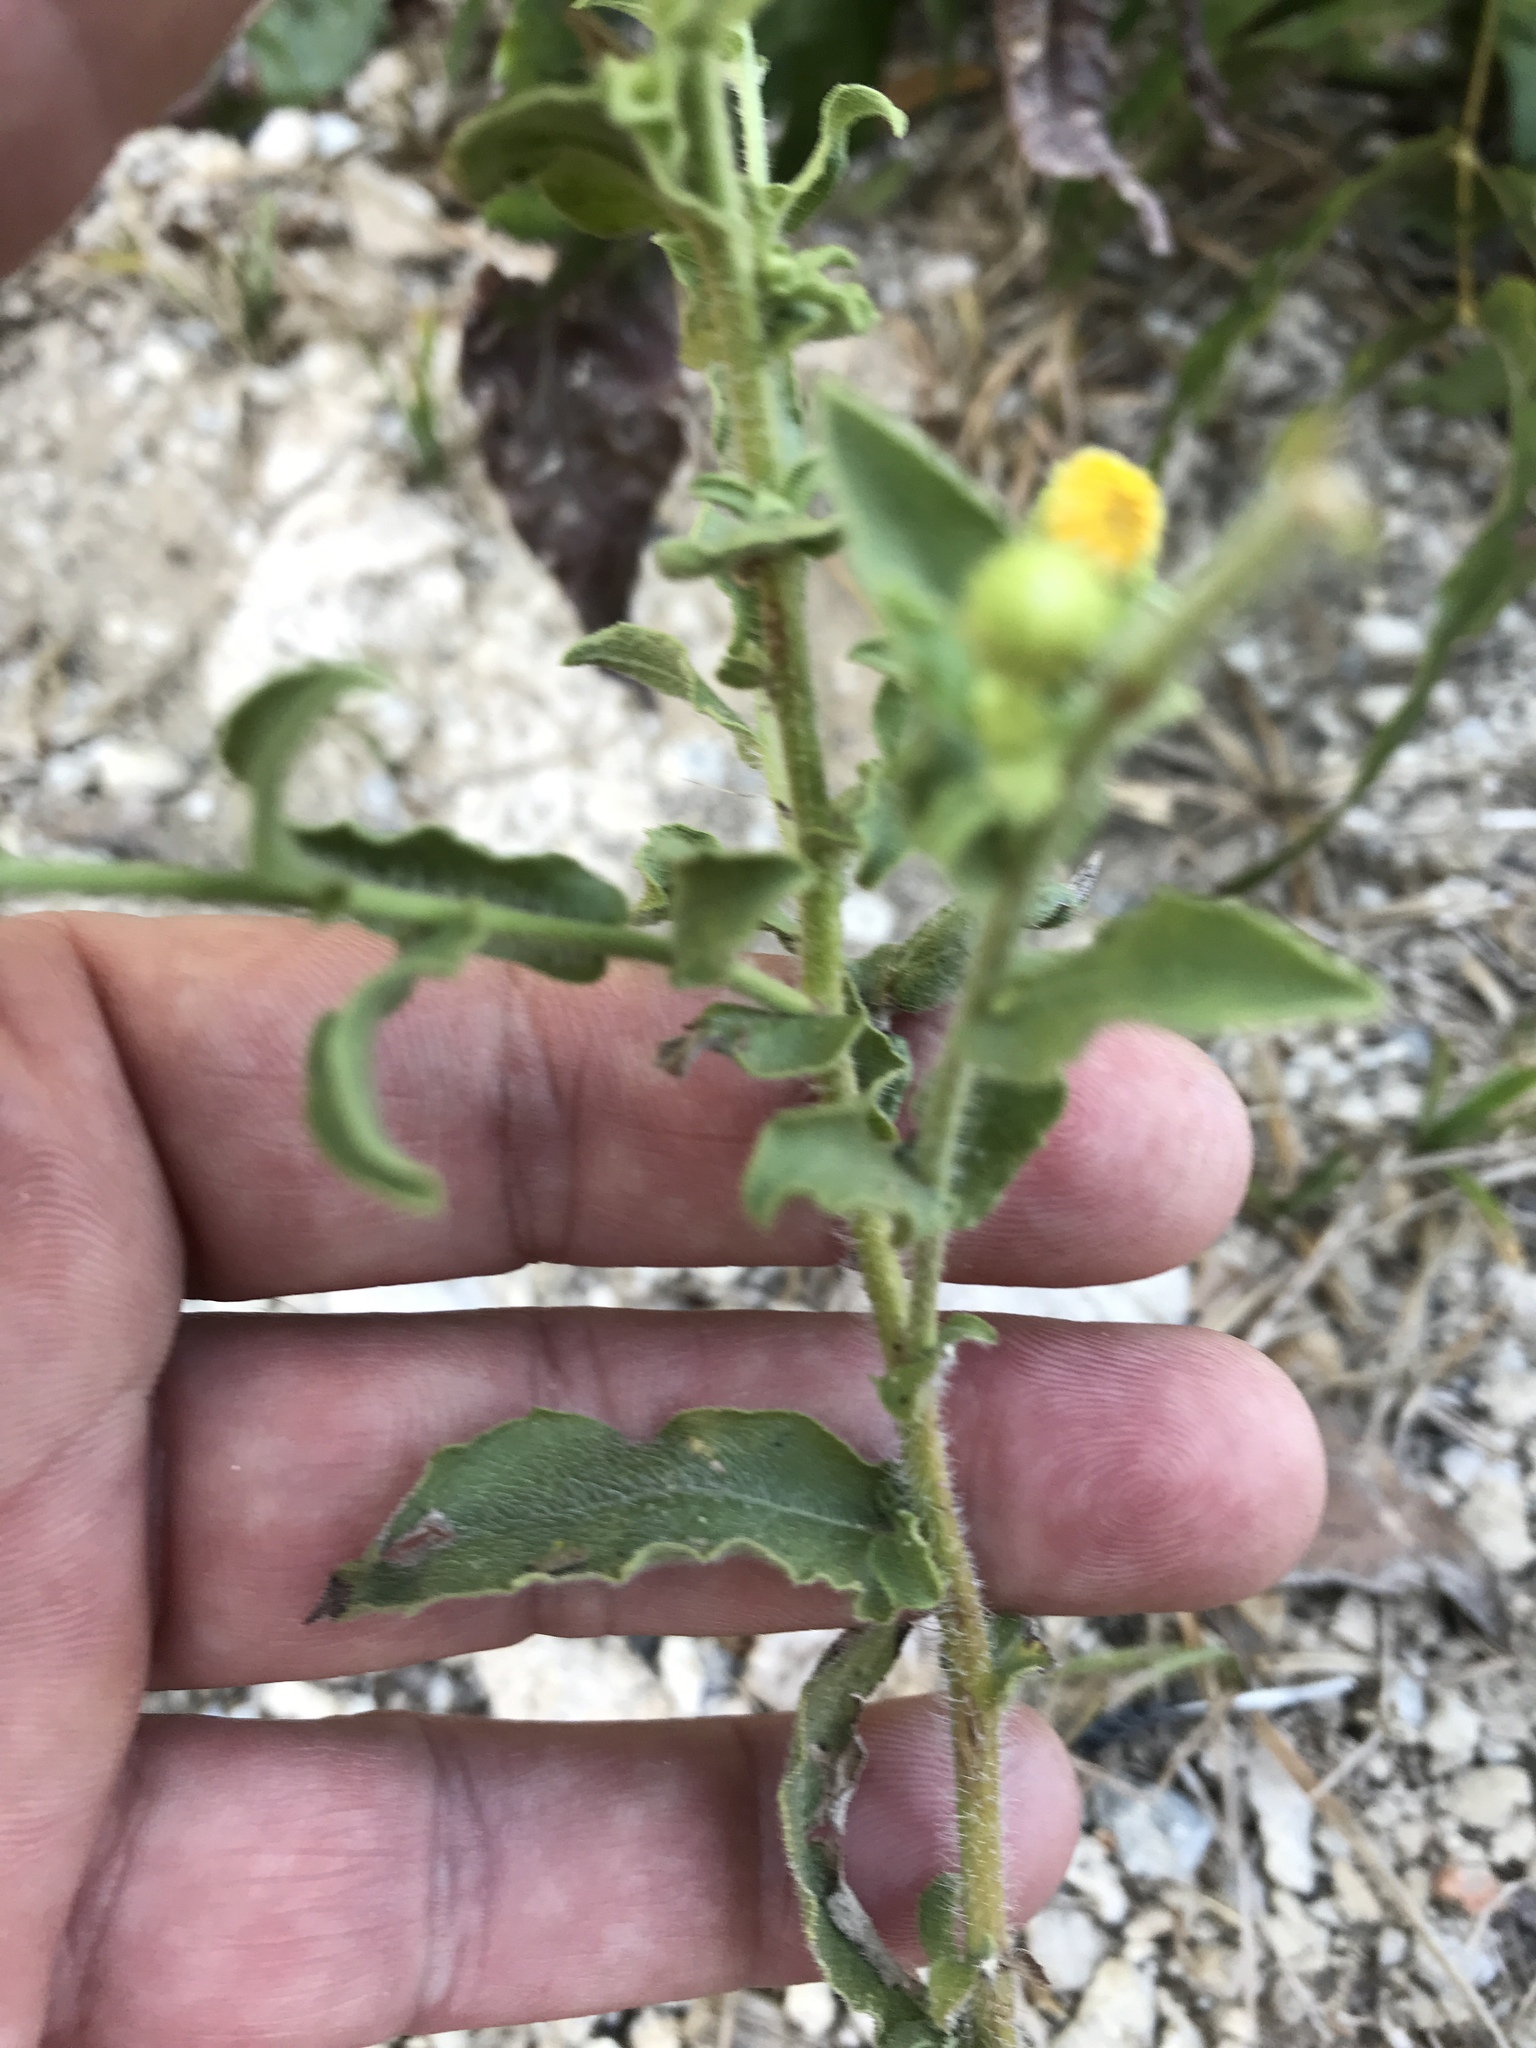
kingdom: Plantae
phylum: Tracheophyta
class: Magnoliopsida
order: Asterales
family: Asteraceae
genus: Heterotheca
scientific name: Heterotheca subaxillaris
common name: Camphorweed
